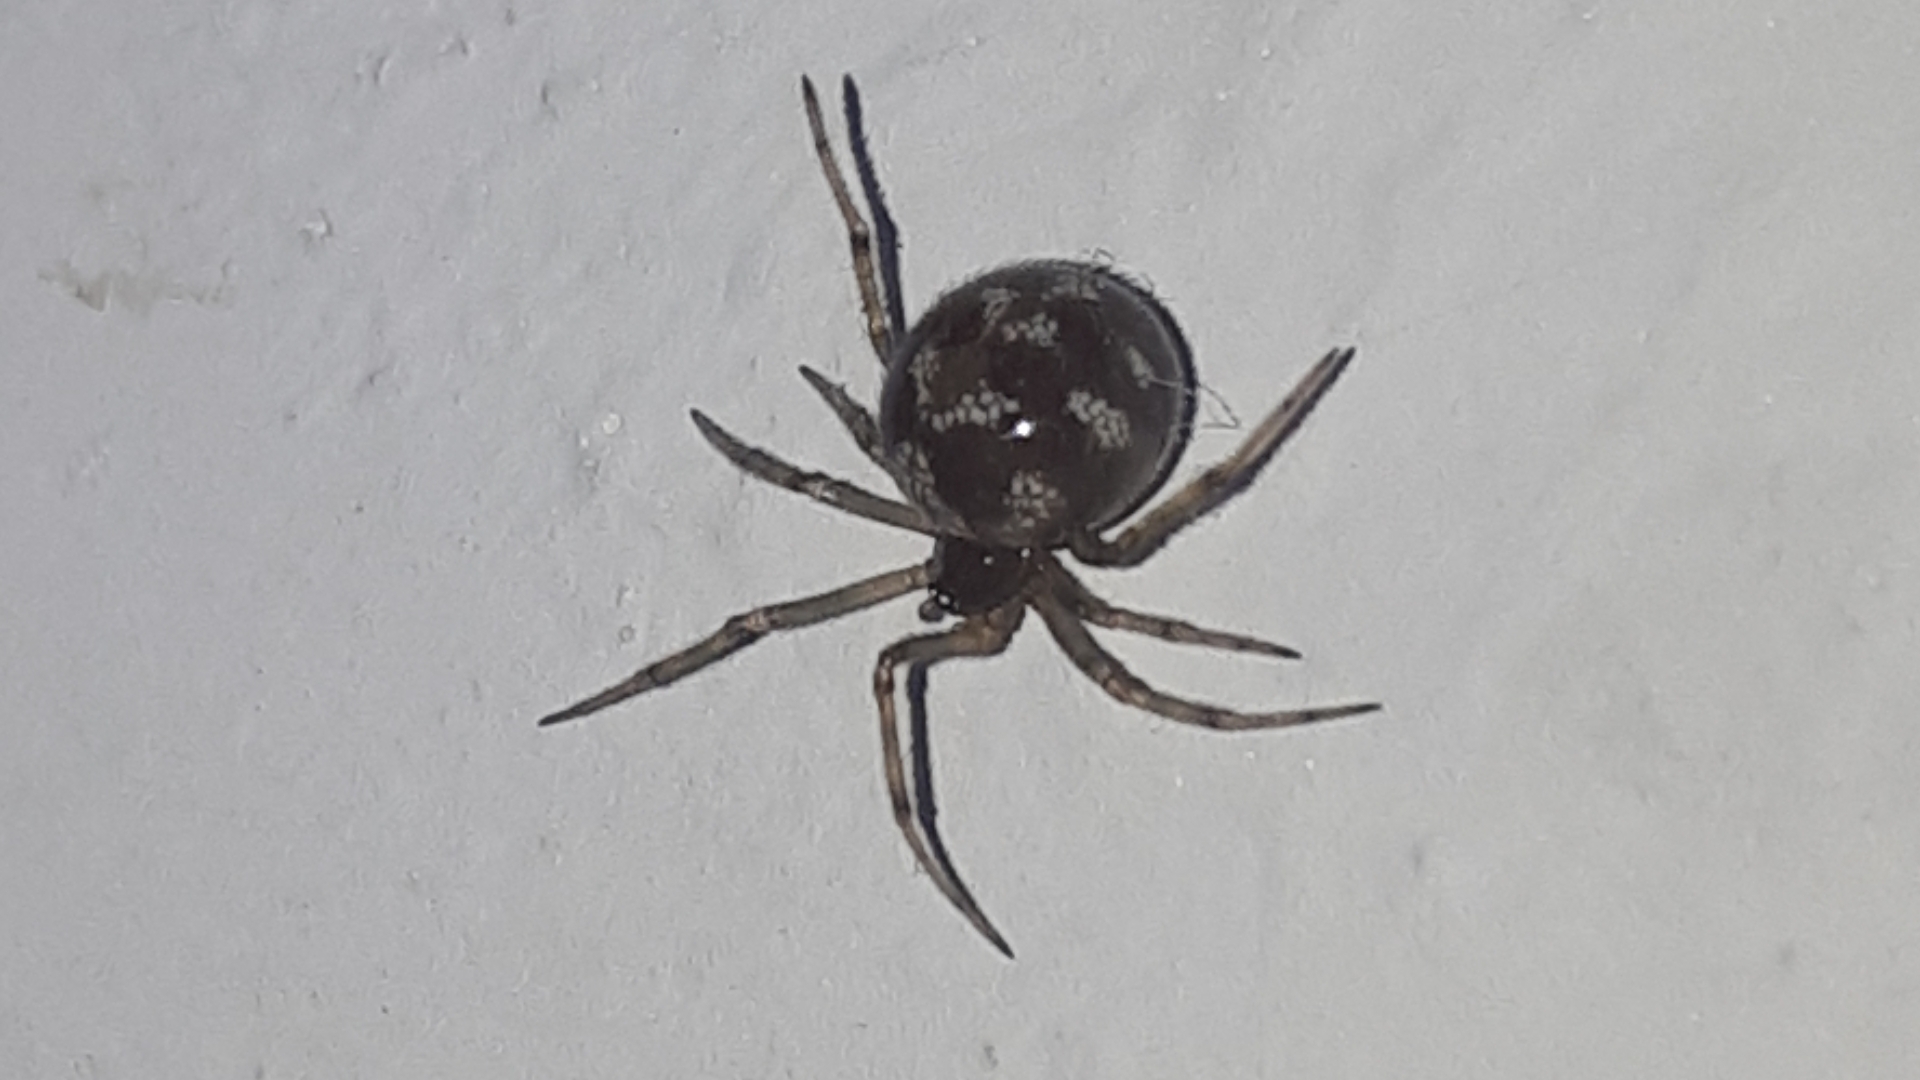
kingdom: Animalia
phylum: Arthropoda
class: Arachnida
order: Araneae
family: Theridiidae
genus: Steatoda
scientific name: Steatoda triangulosa
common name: Triangulate bud spider
